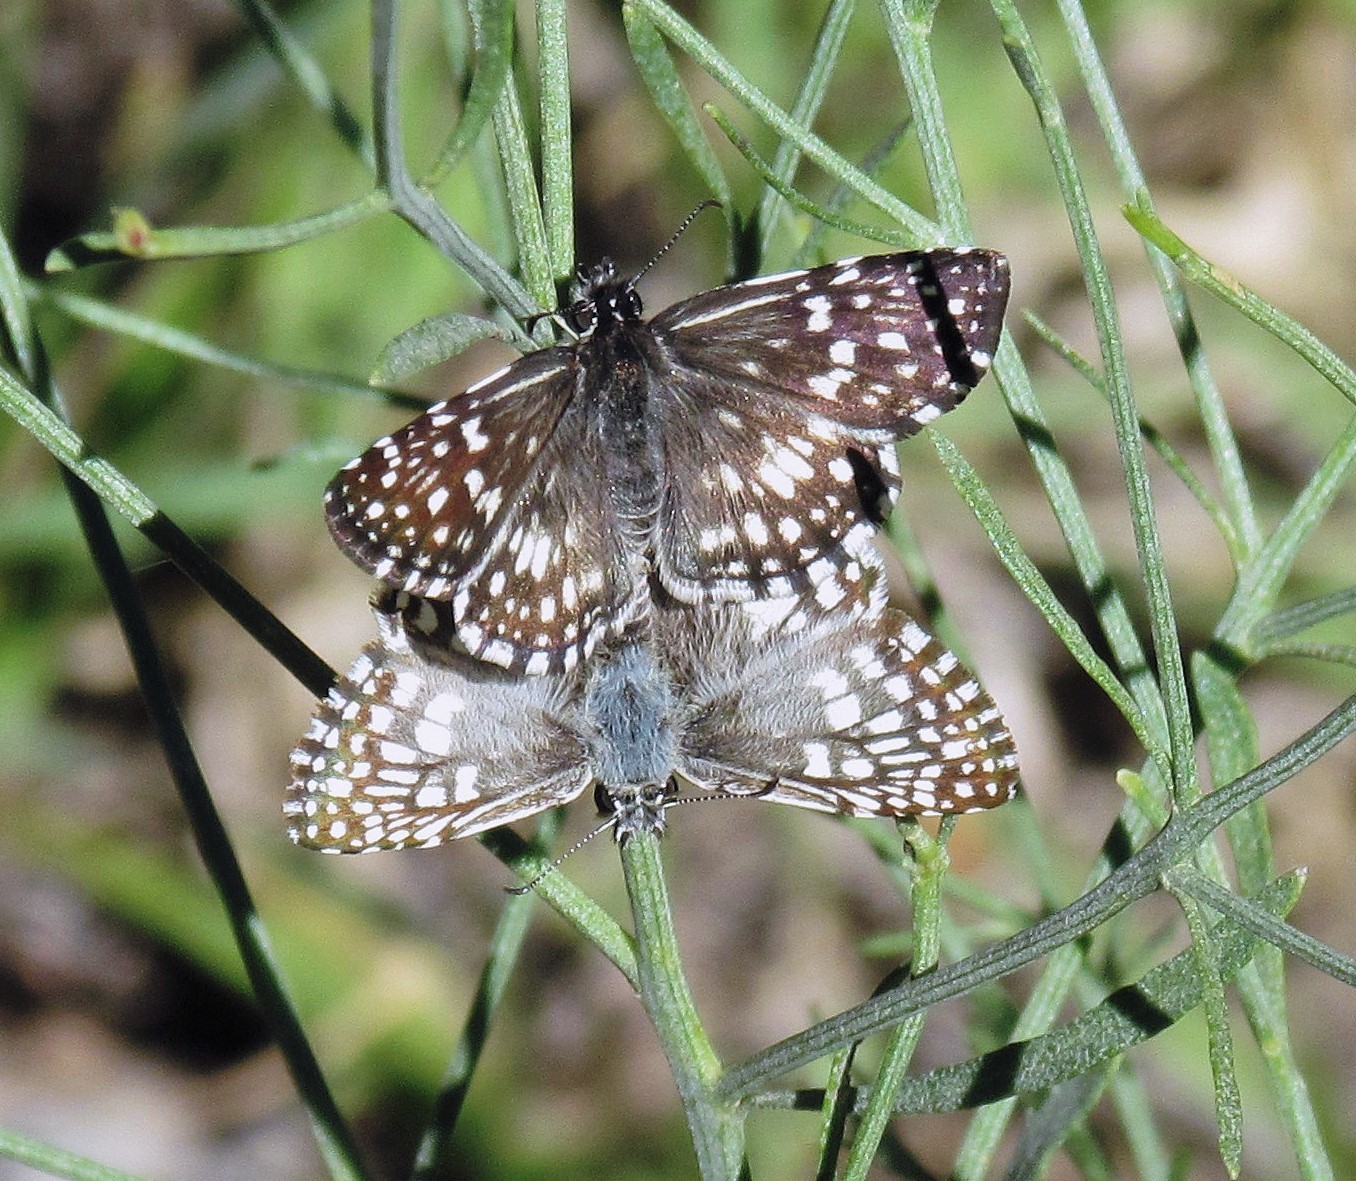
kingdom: Animalia
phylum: Arthropoda
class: Insecta
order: Lepidoptera
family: Hesperiidae
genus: Pyrgus
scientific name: Pyrgus oileus
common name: Tropical checkered-skipper
